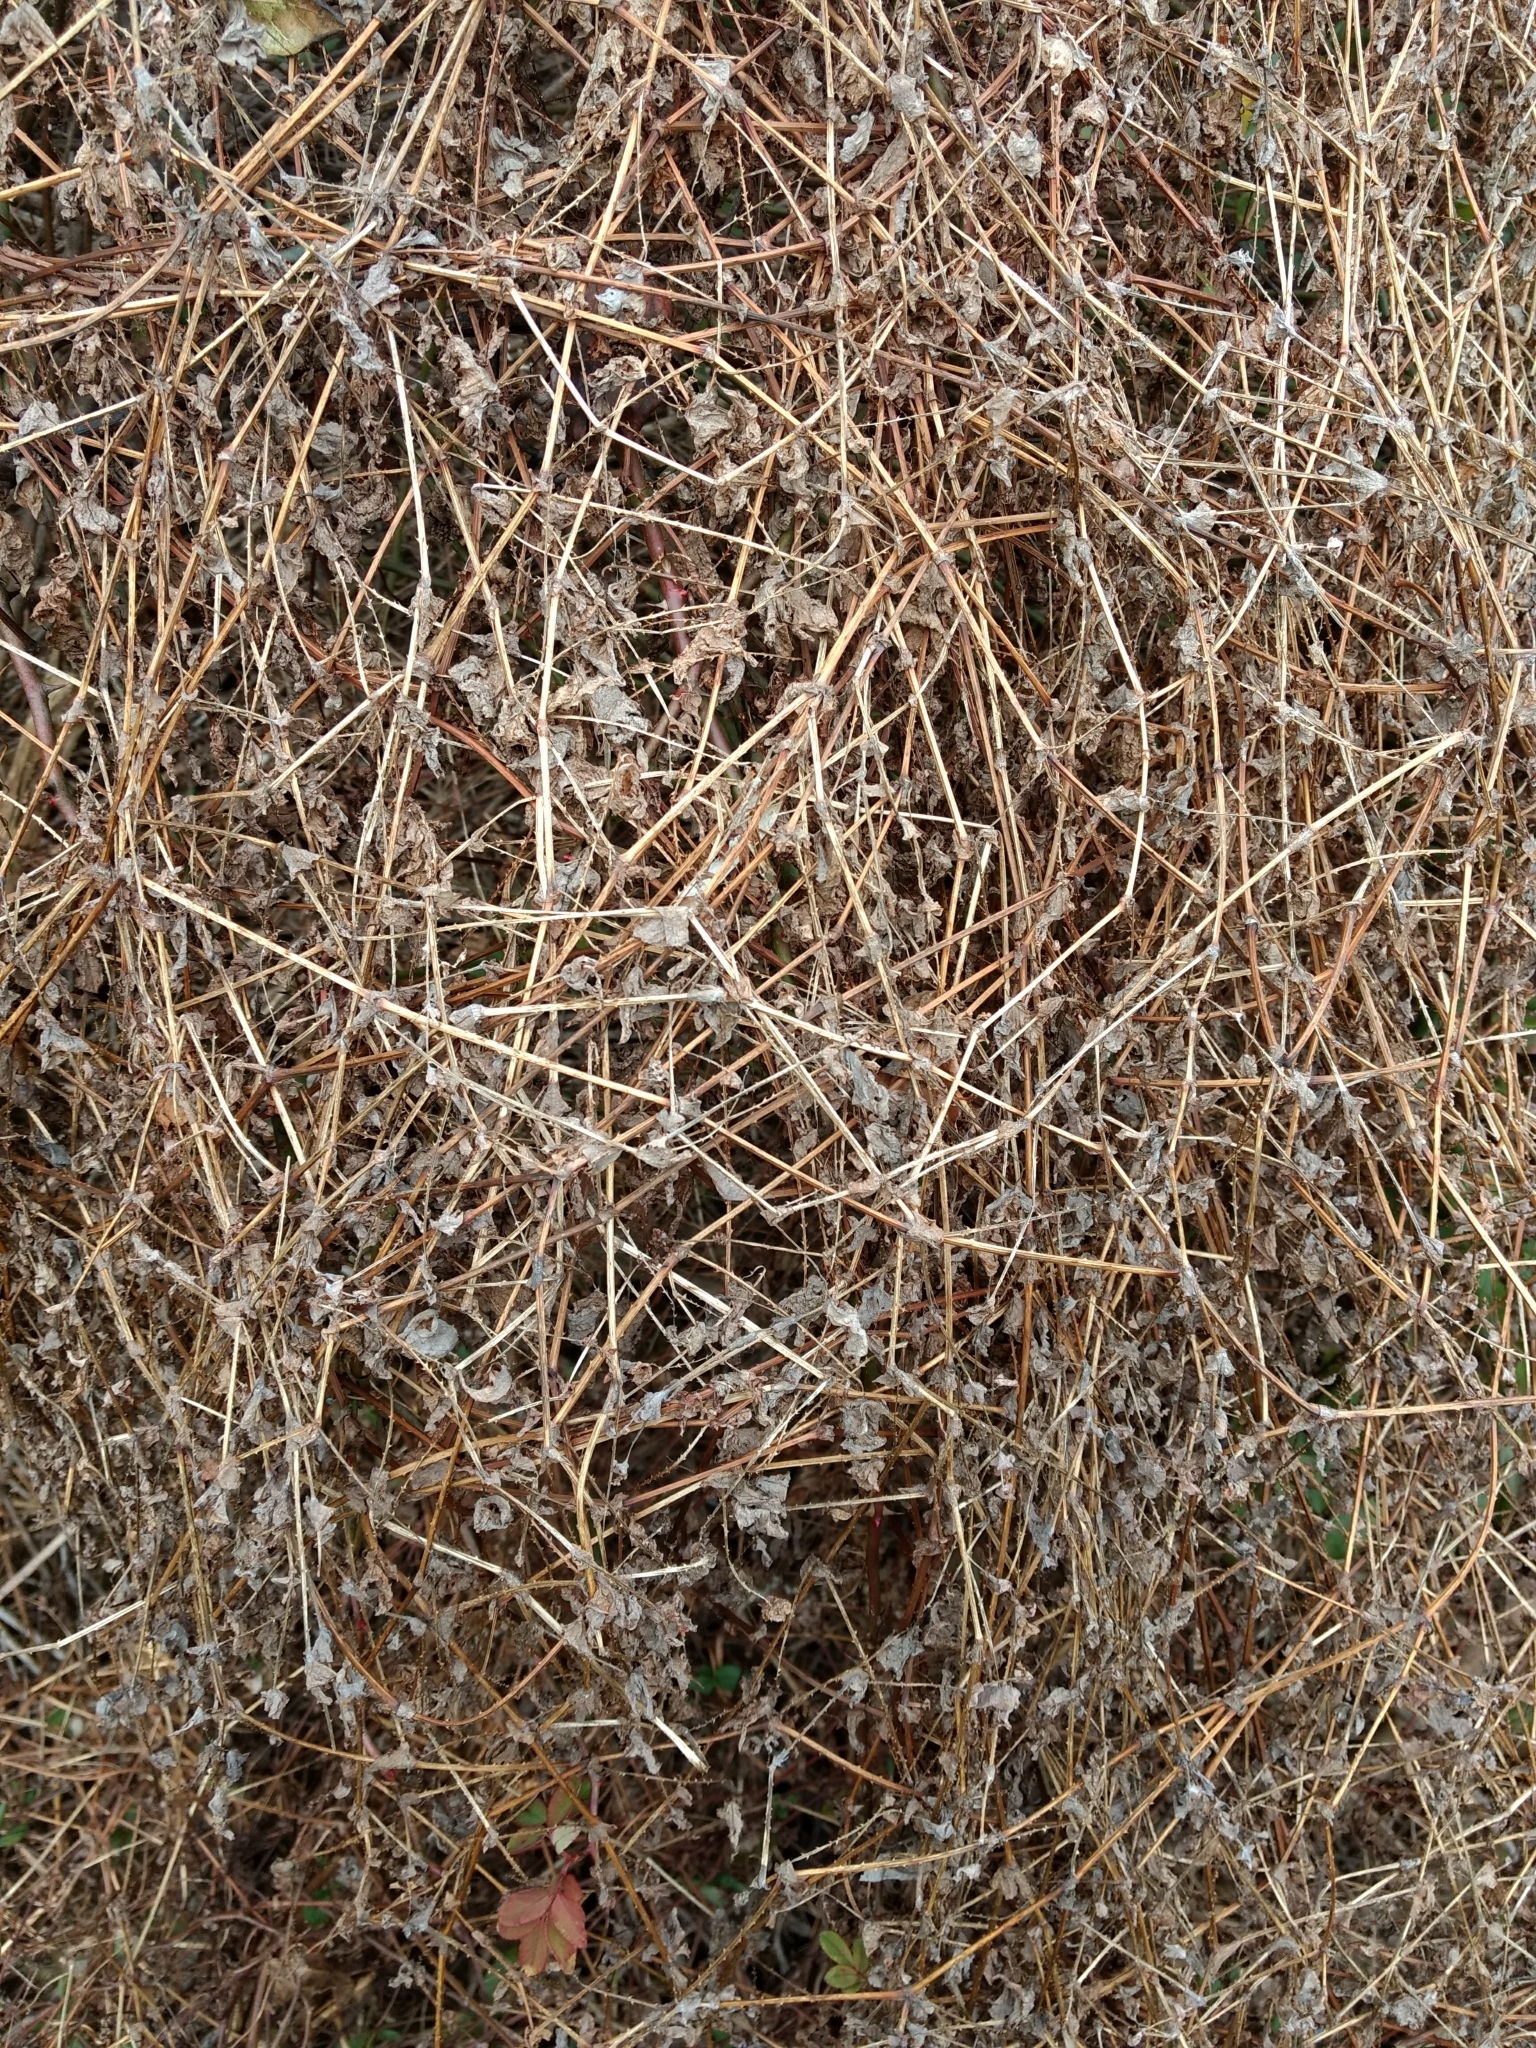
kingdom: Plantae
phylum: Tracheophyta
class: Magnoliopsida
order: Caryophyllales
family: Polygonaceae
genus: Persicaria
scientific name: Persicaria perfoliata
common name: Asiatic tearthumb
